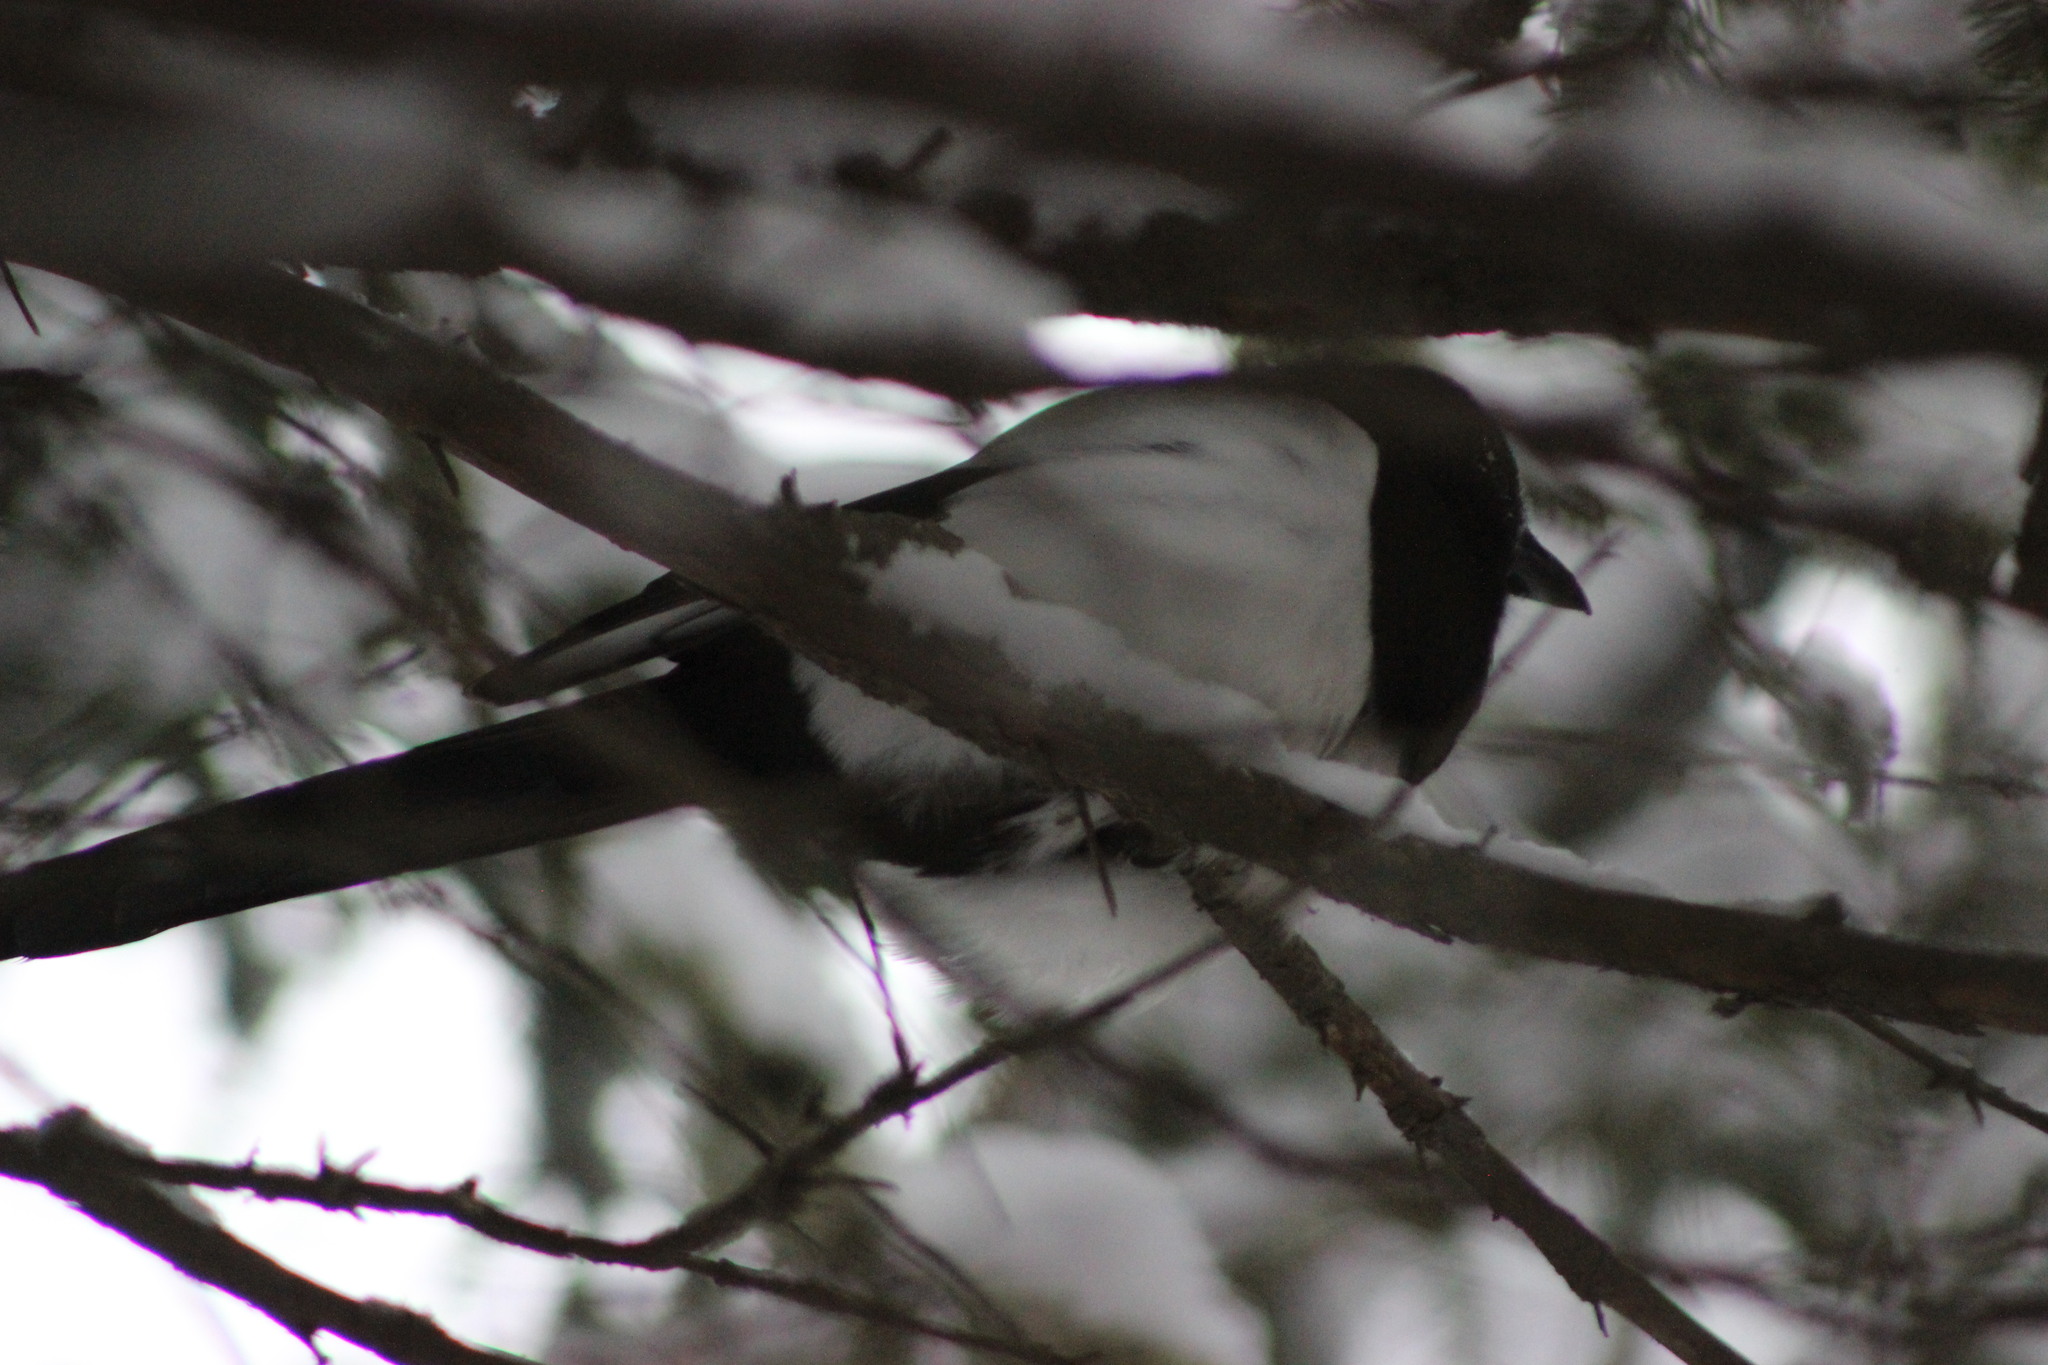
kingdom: Animalia
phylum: Chordata
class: Aves
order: Passeriformes
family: Corvidae
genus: Pica
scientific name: Pica pica
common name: Eurasian magpie
